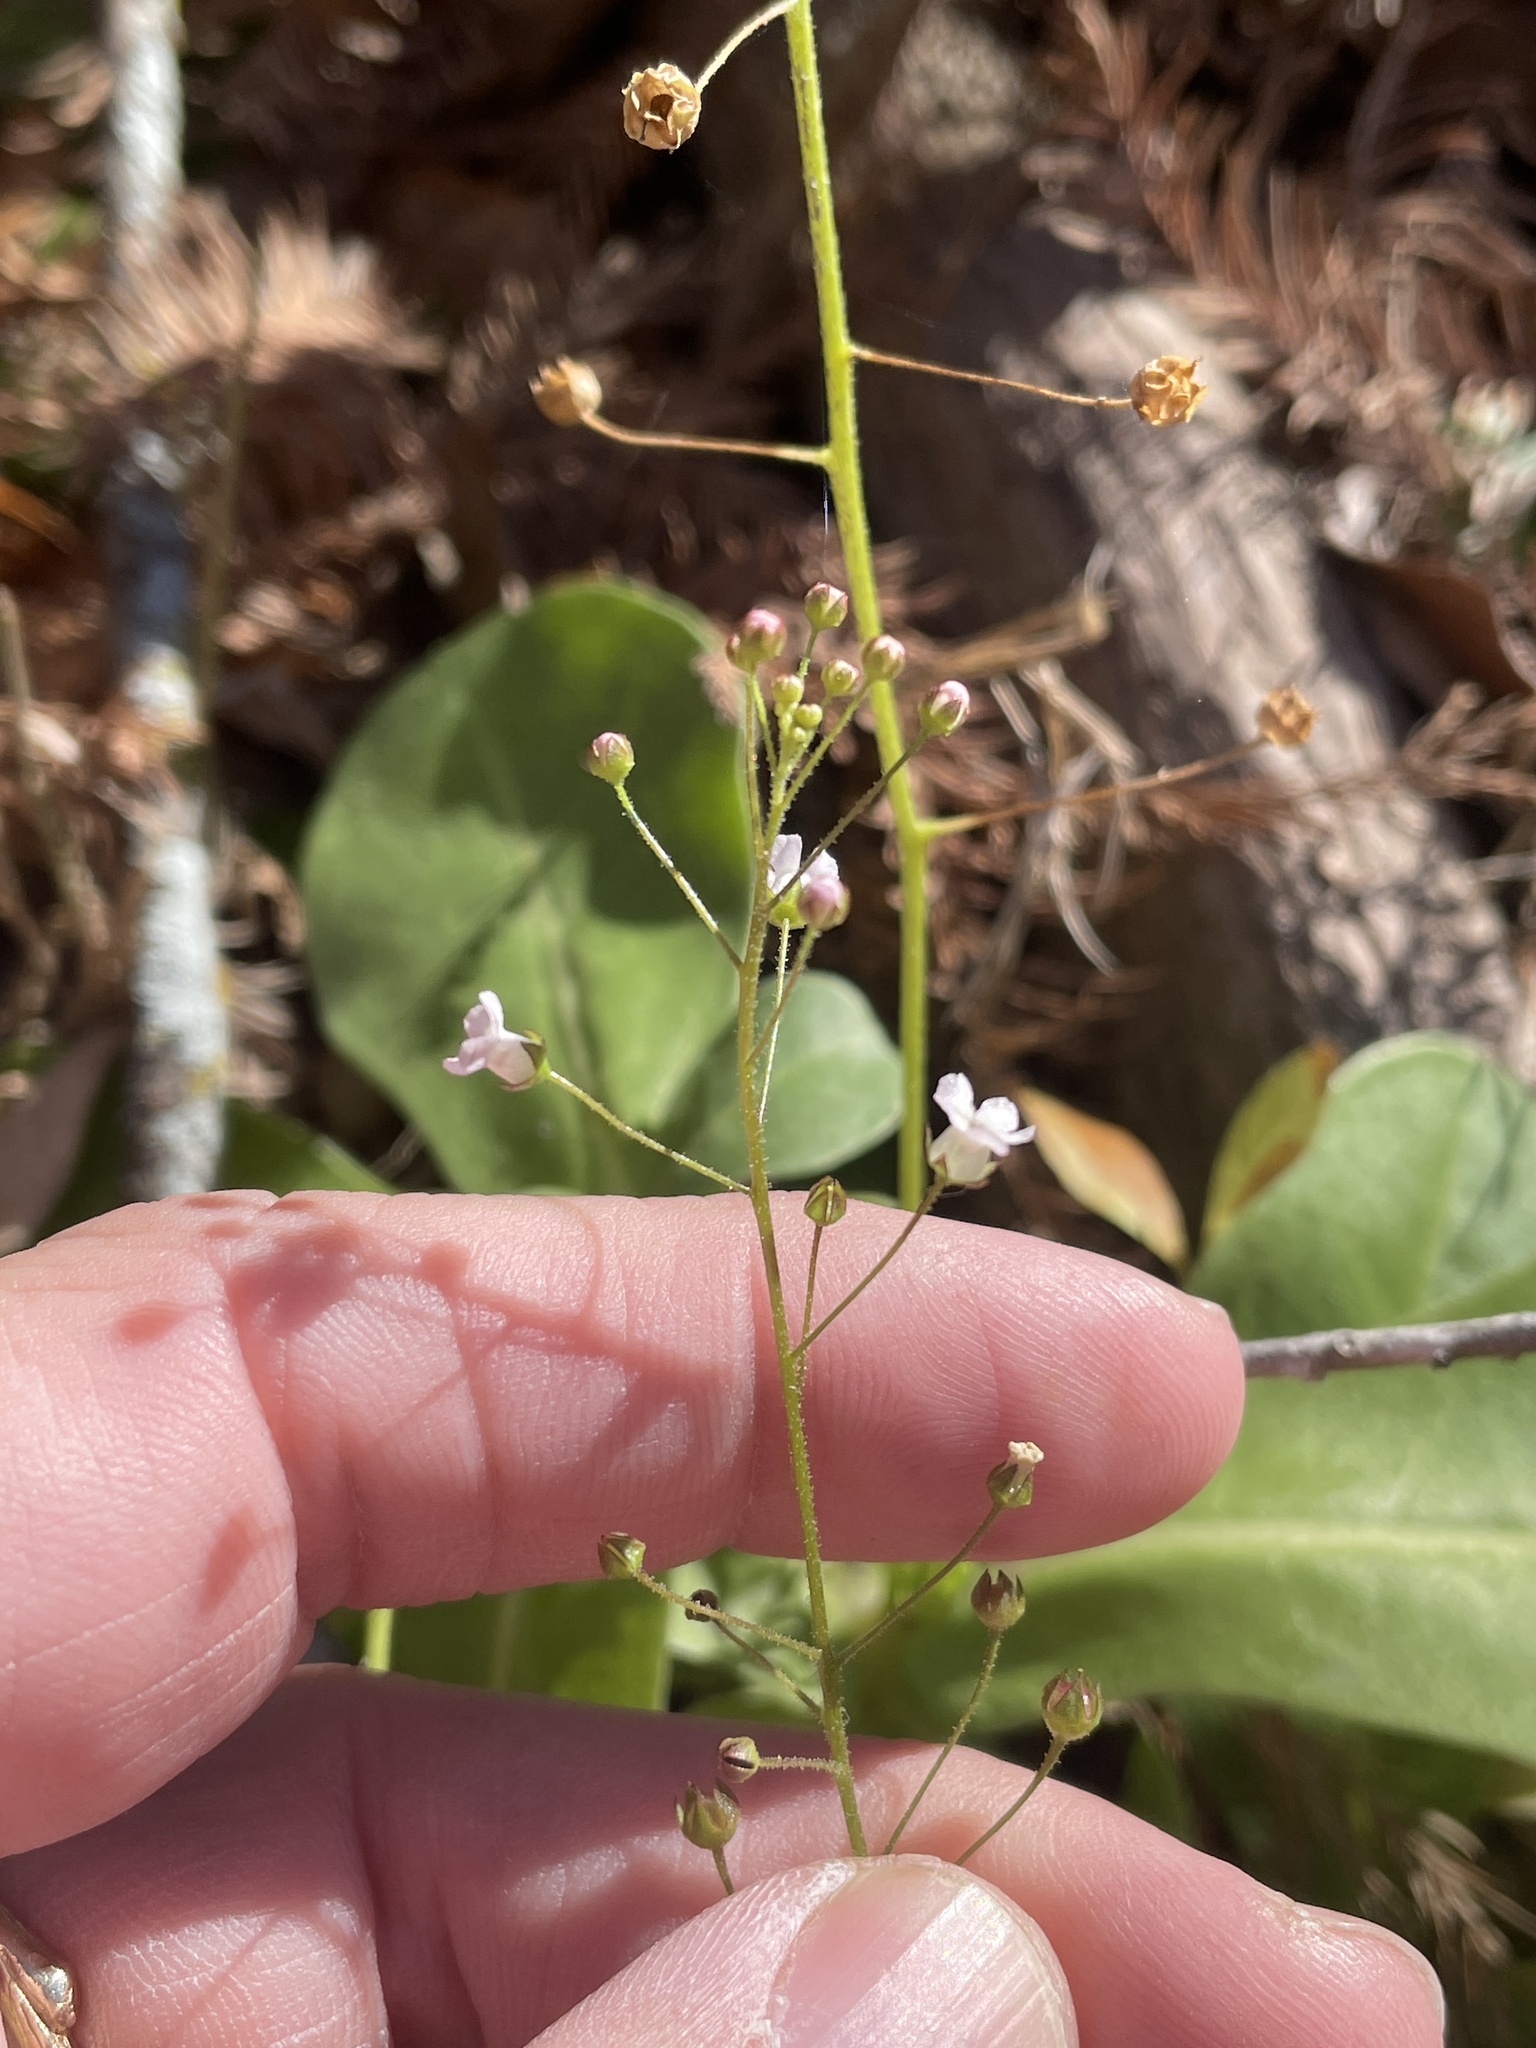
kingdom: Plantae
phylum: Tracheophyta
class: Magnoliopsida
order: Ericales
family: Primulaceae
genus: Samolus
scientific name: Samolus ebracteatus
